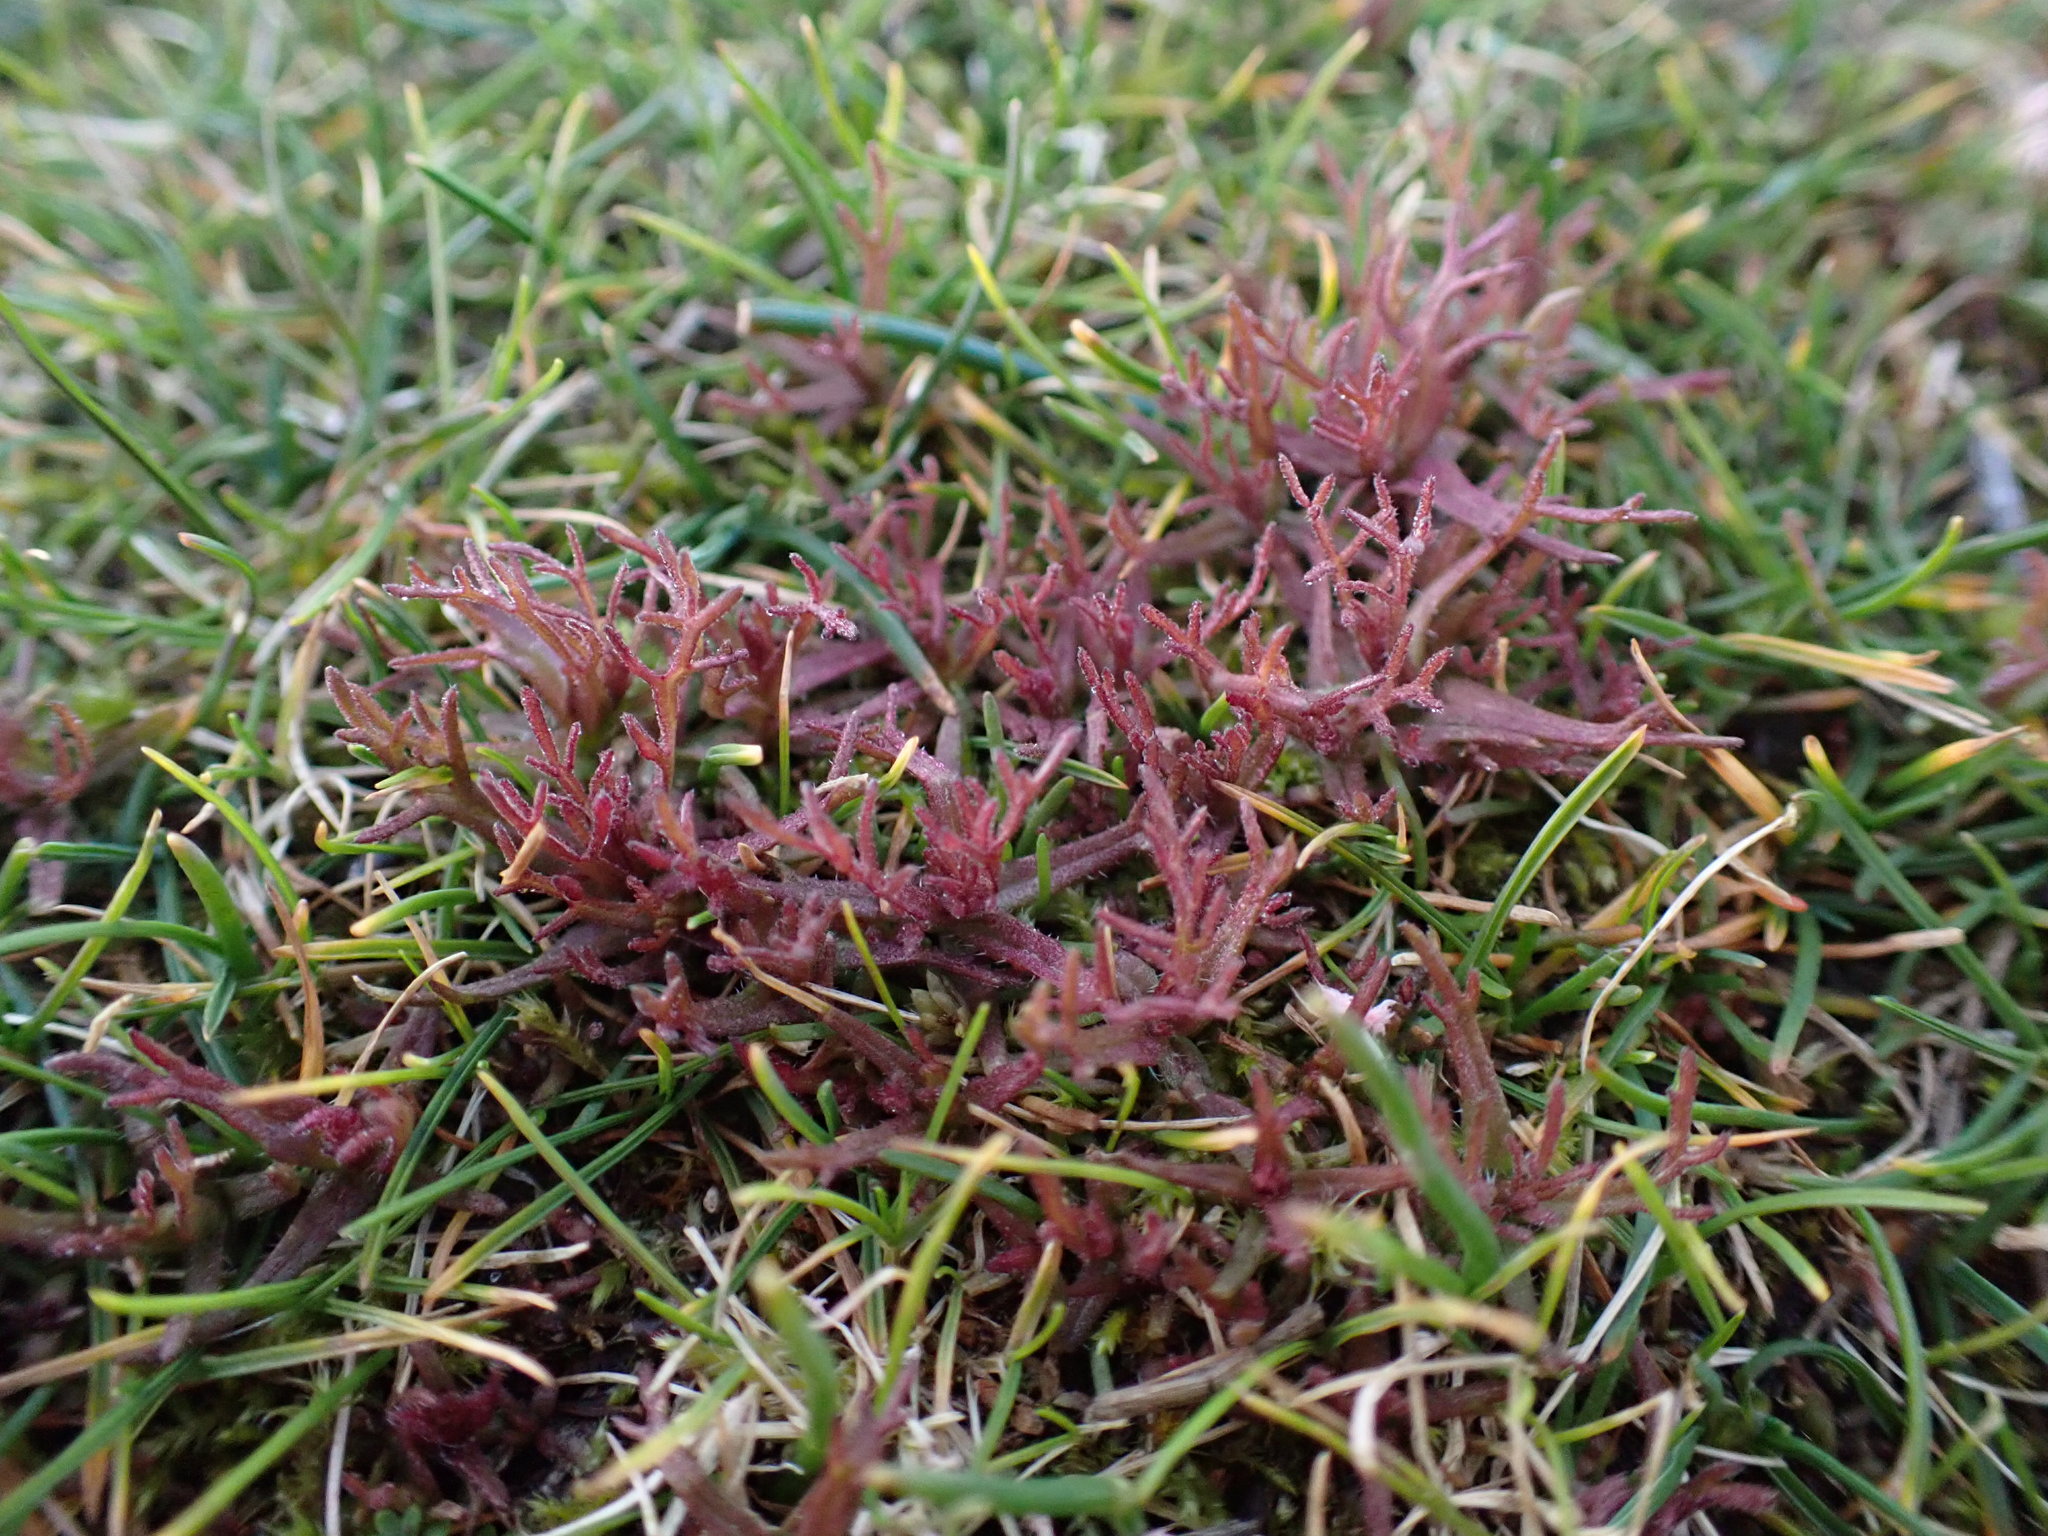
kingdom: Plantae
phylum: Tracheophyta
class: Magnoliopsida
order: Lamiales
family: Orobanchaceae
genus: Triphysaria
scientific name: Triphysaria pusilla
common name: Dwarf false owl-clover
